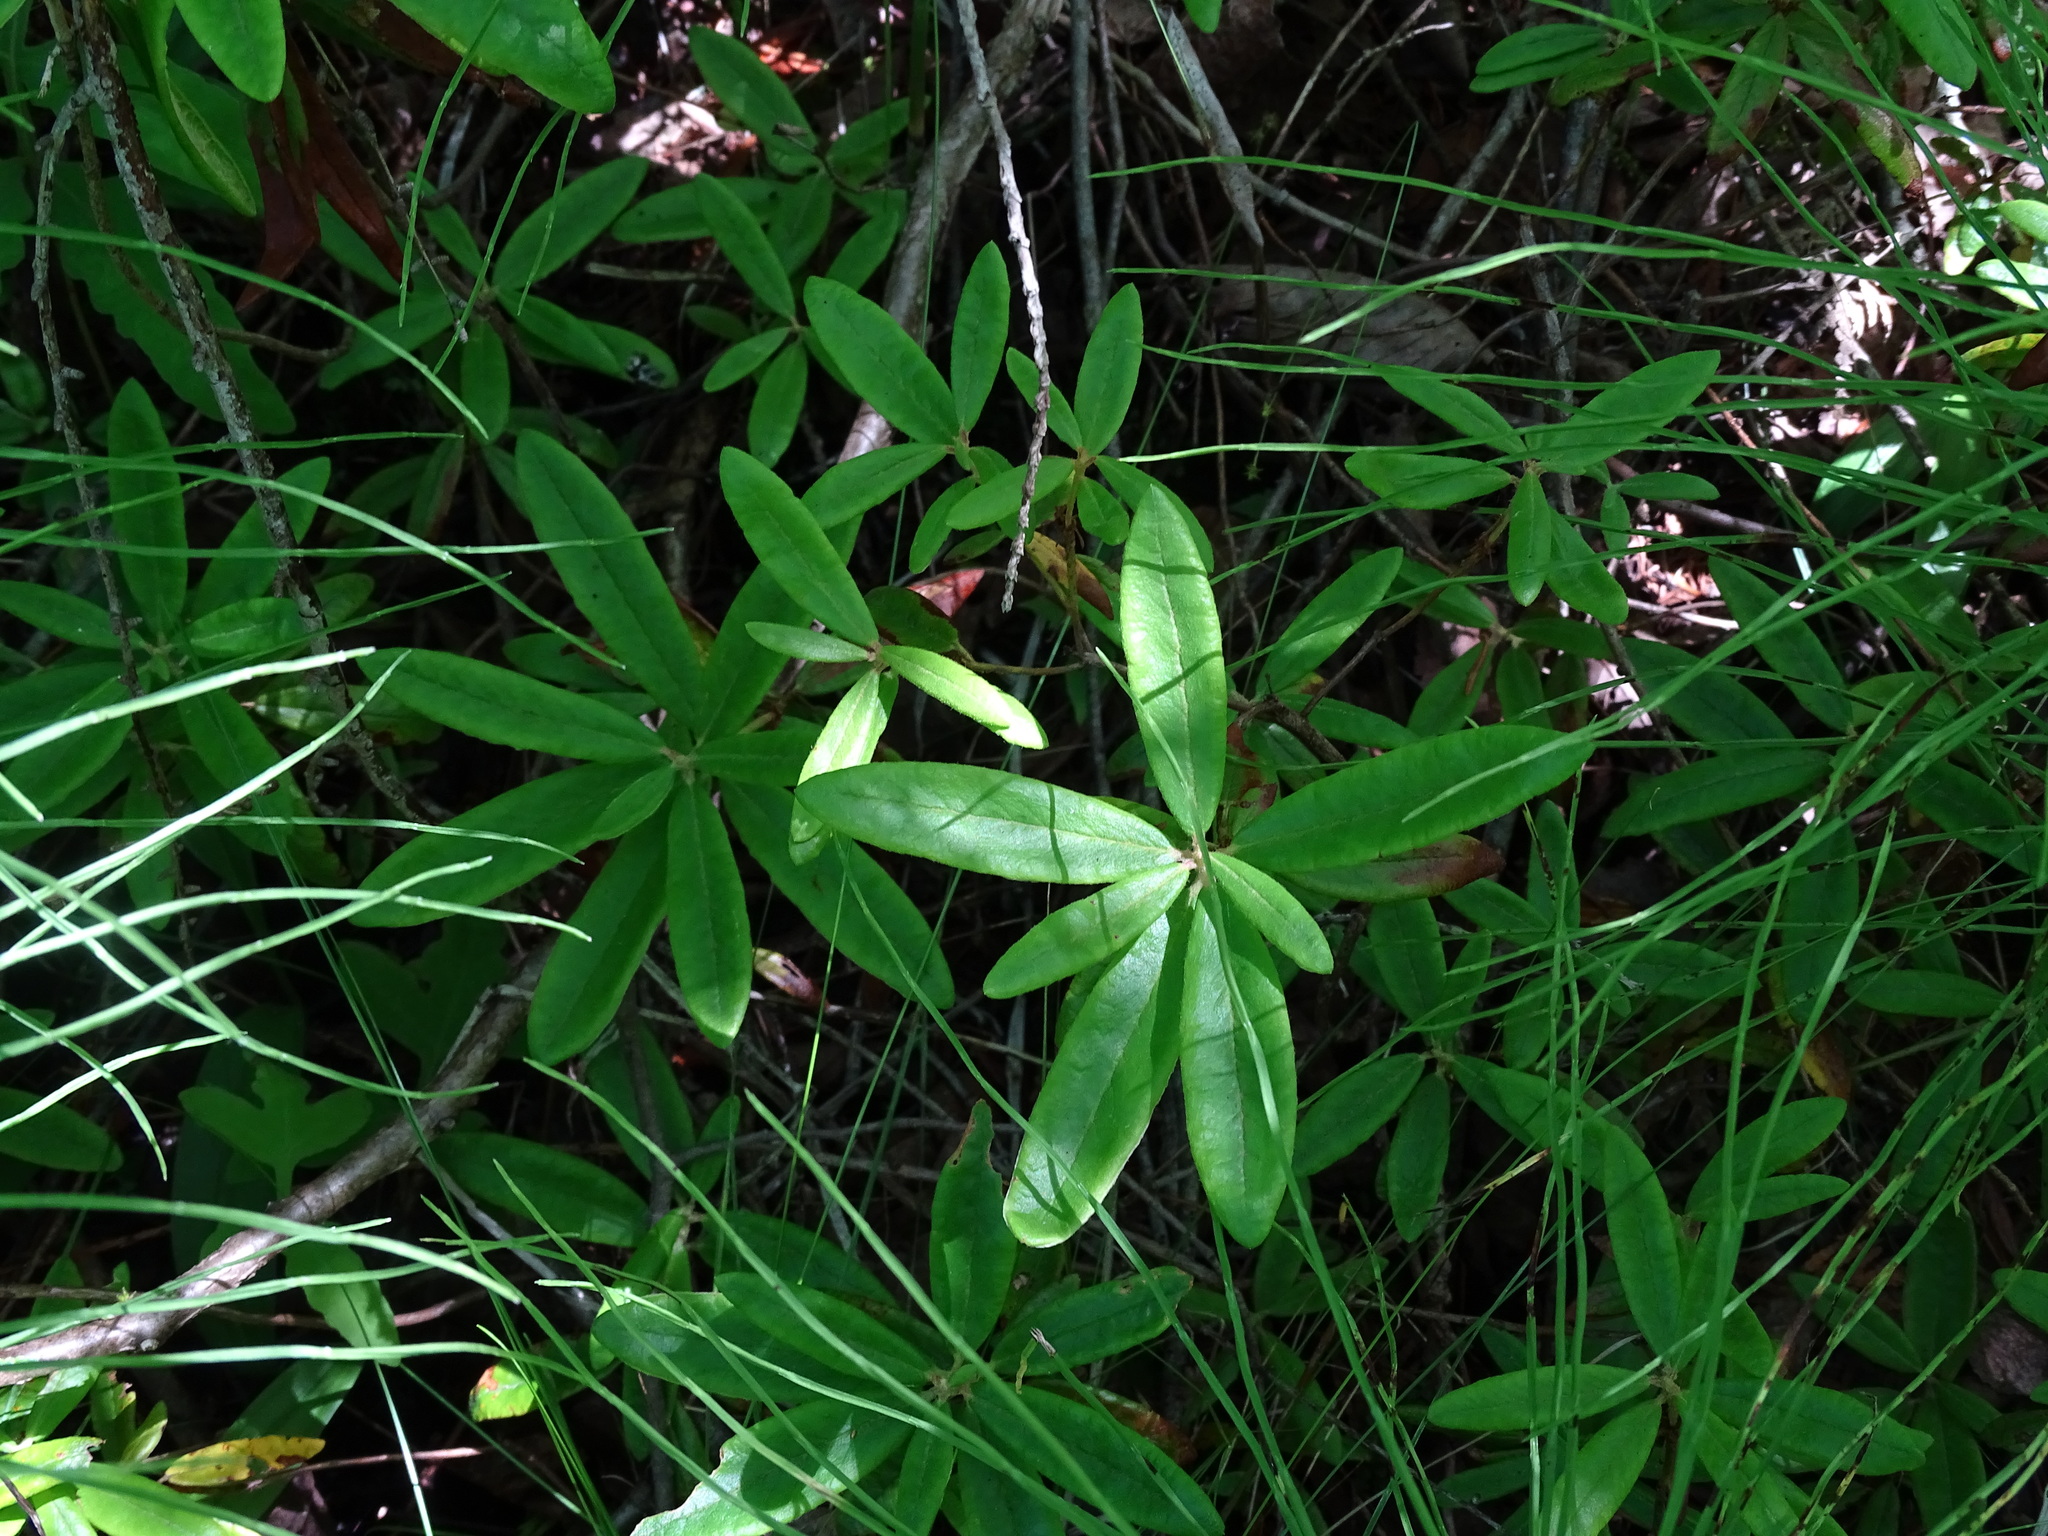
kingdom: Plantae
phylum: Tracheophyta
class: Magnoliopsida
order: Ericales
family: Ericaceae
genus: Rhododendron
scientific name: Rhododendron groenlandicum
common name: Bog labrador tea
